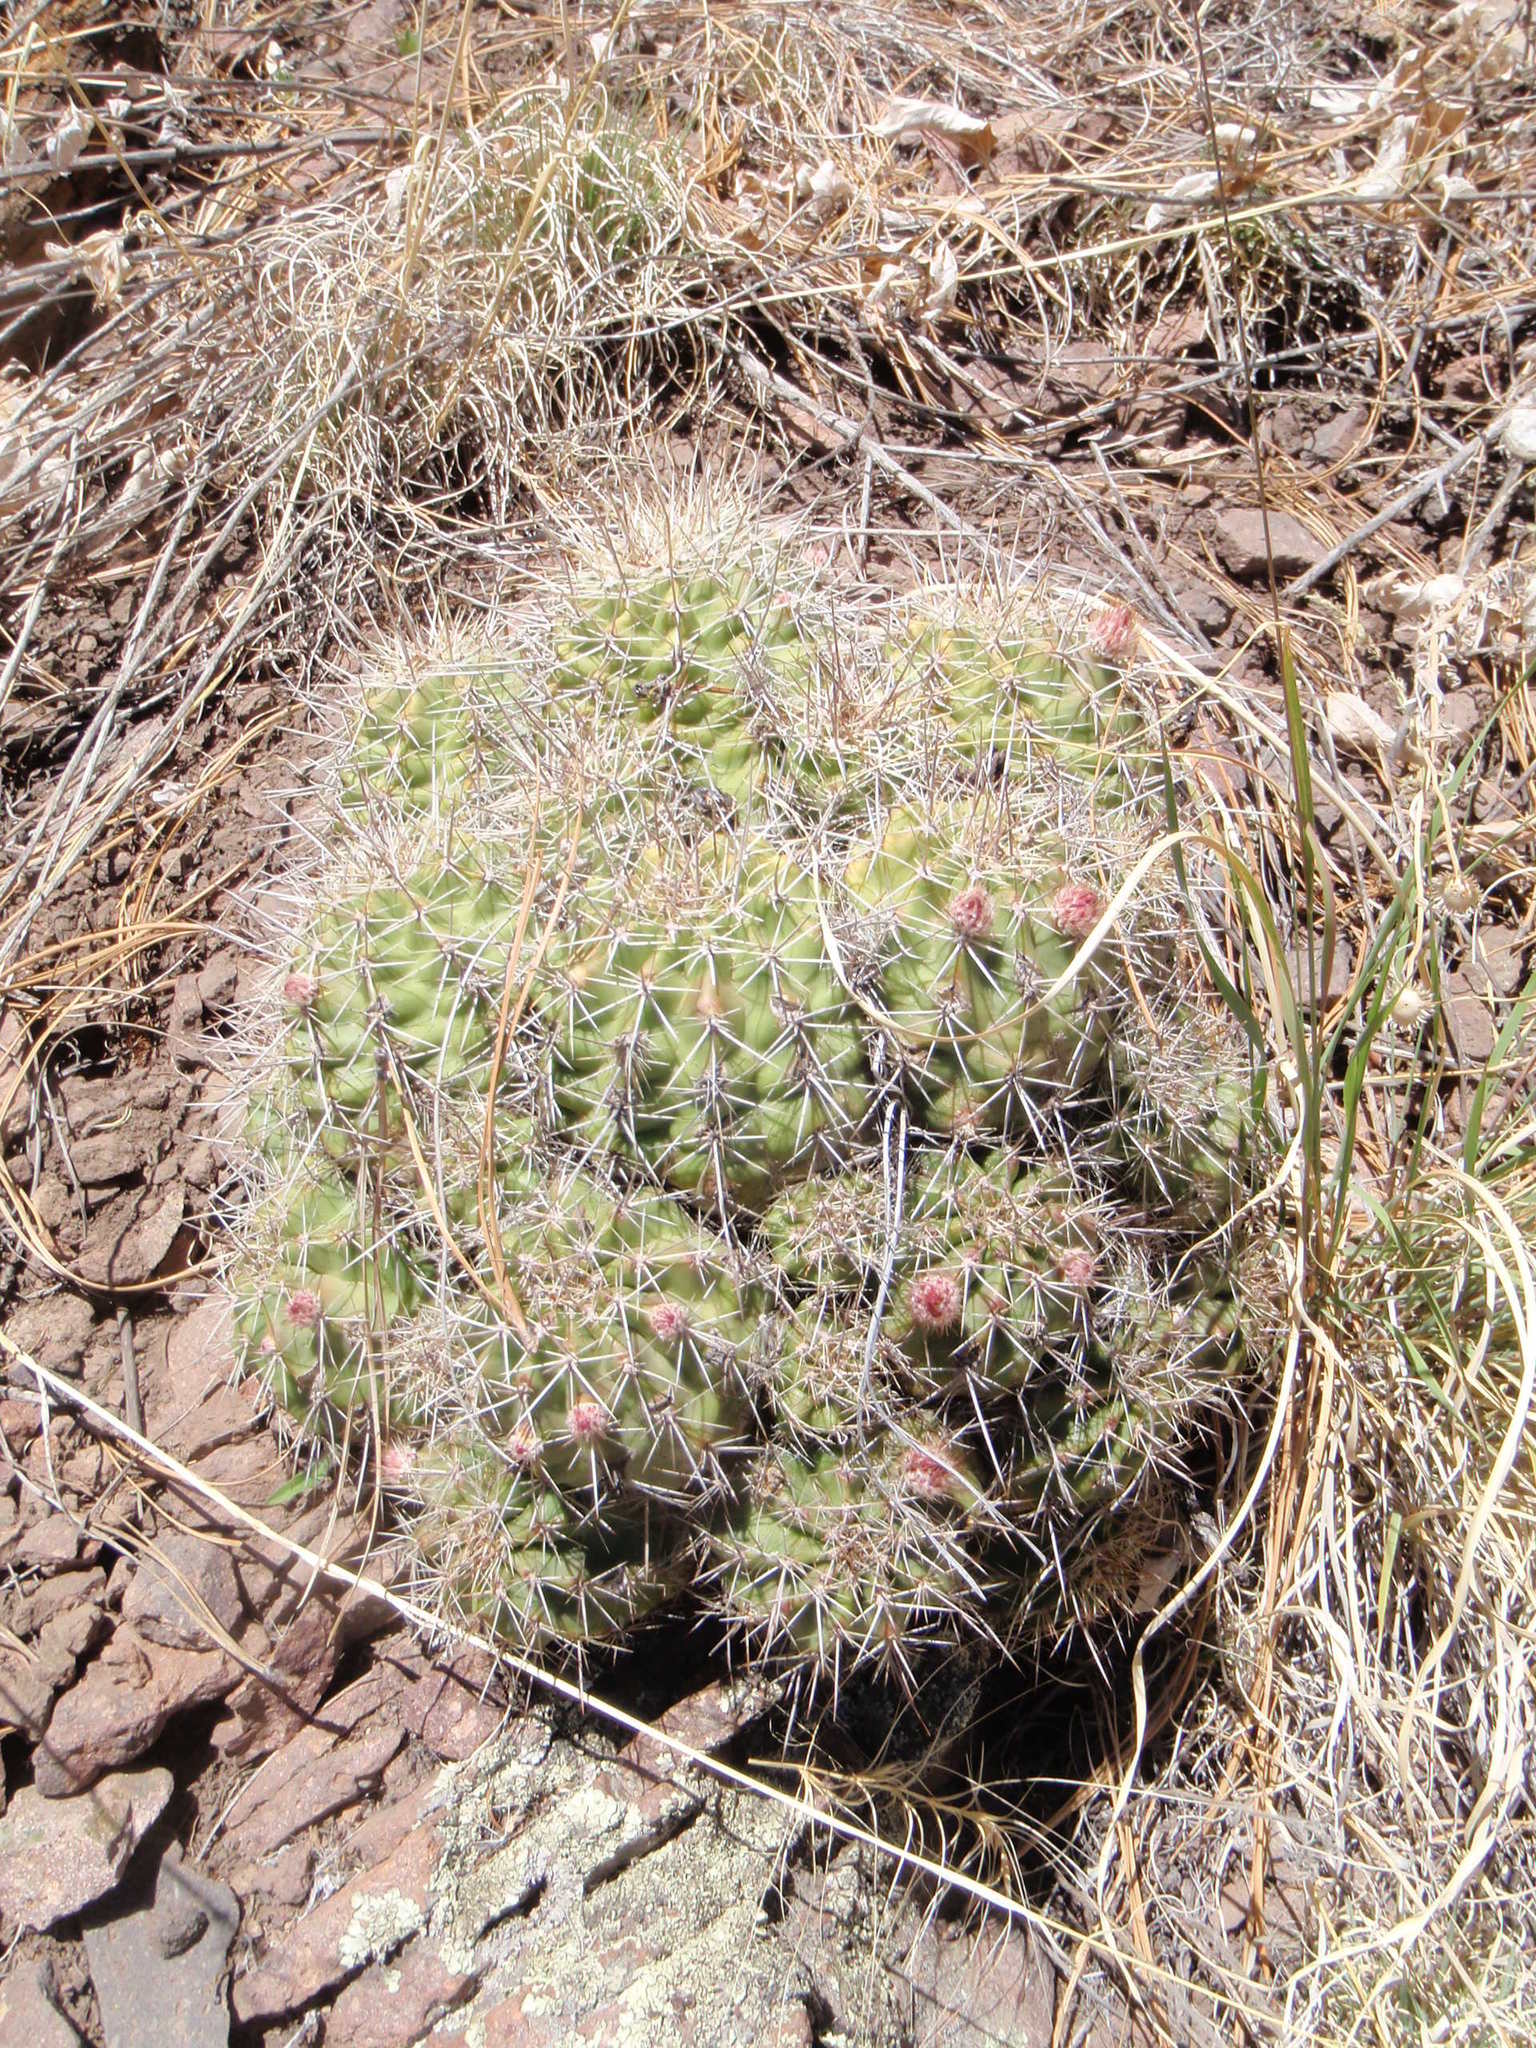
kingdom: Plantae
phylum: Tracheophyta
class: Magnoliopsida
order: Caryophyllales
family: Cactaceae
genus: Echinocereus
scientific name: Echinocereus coccineus
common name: Scarlet hedgehog cactus
